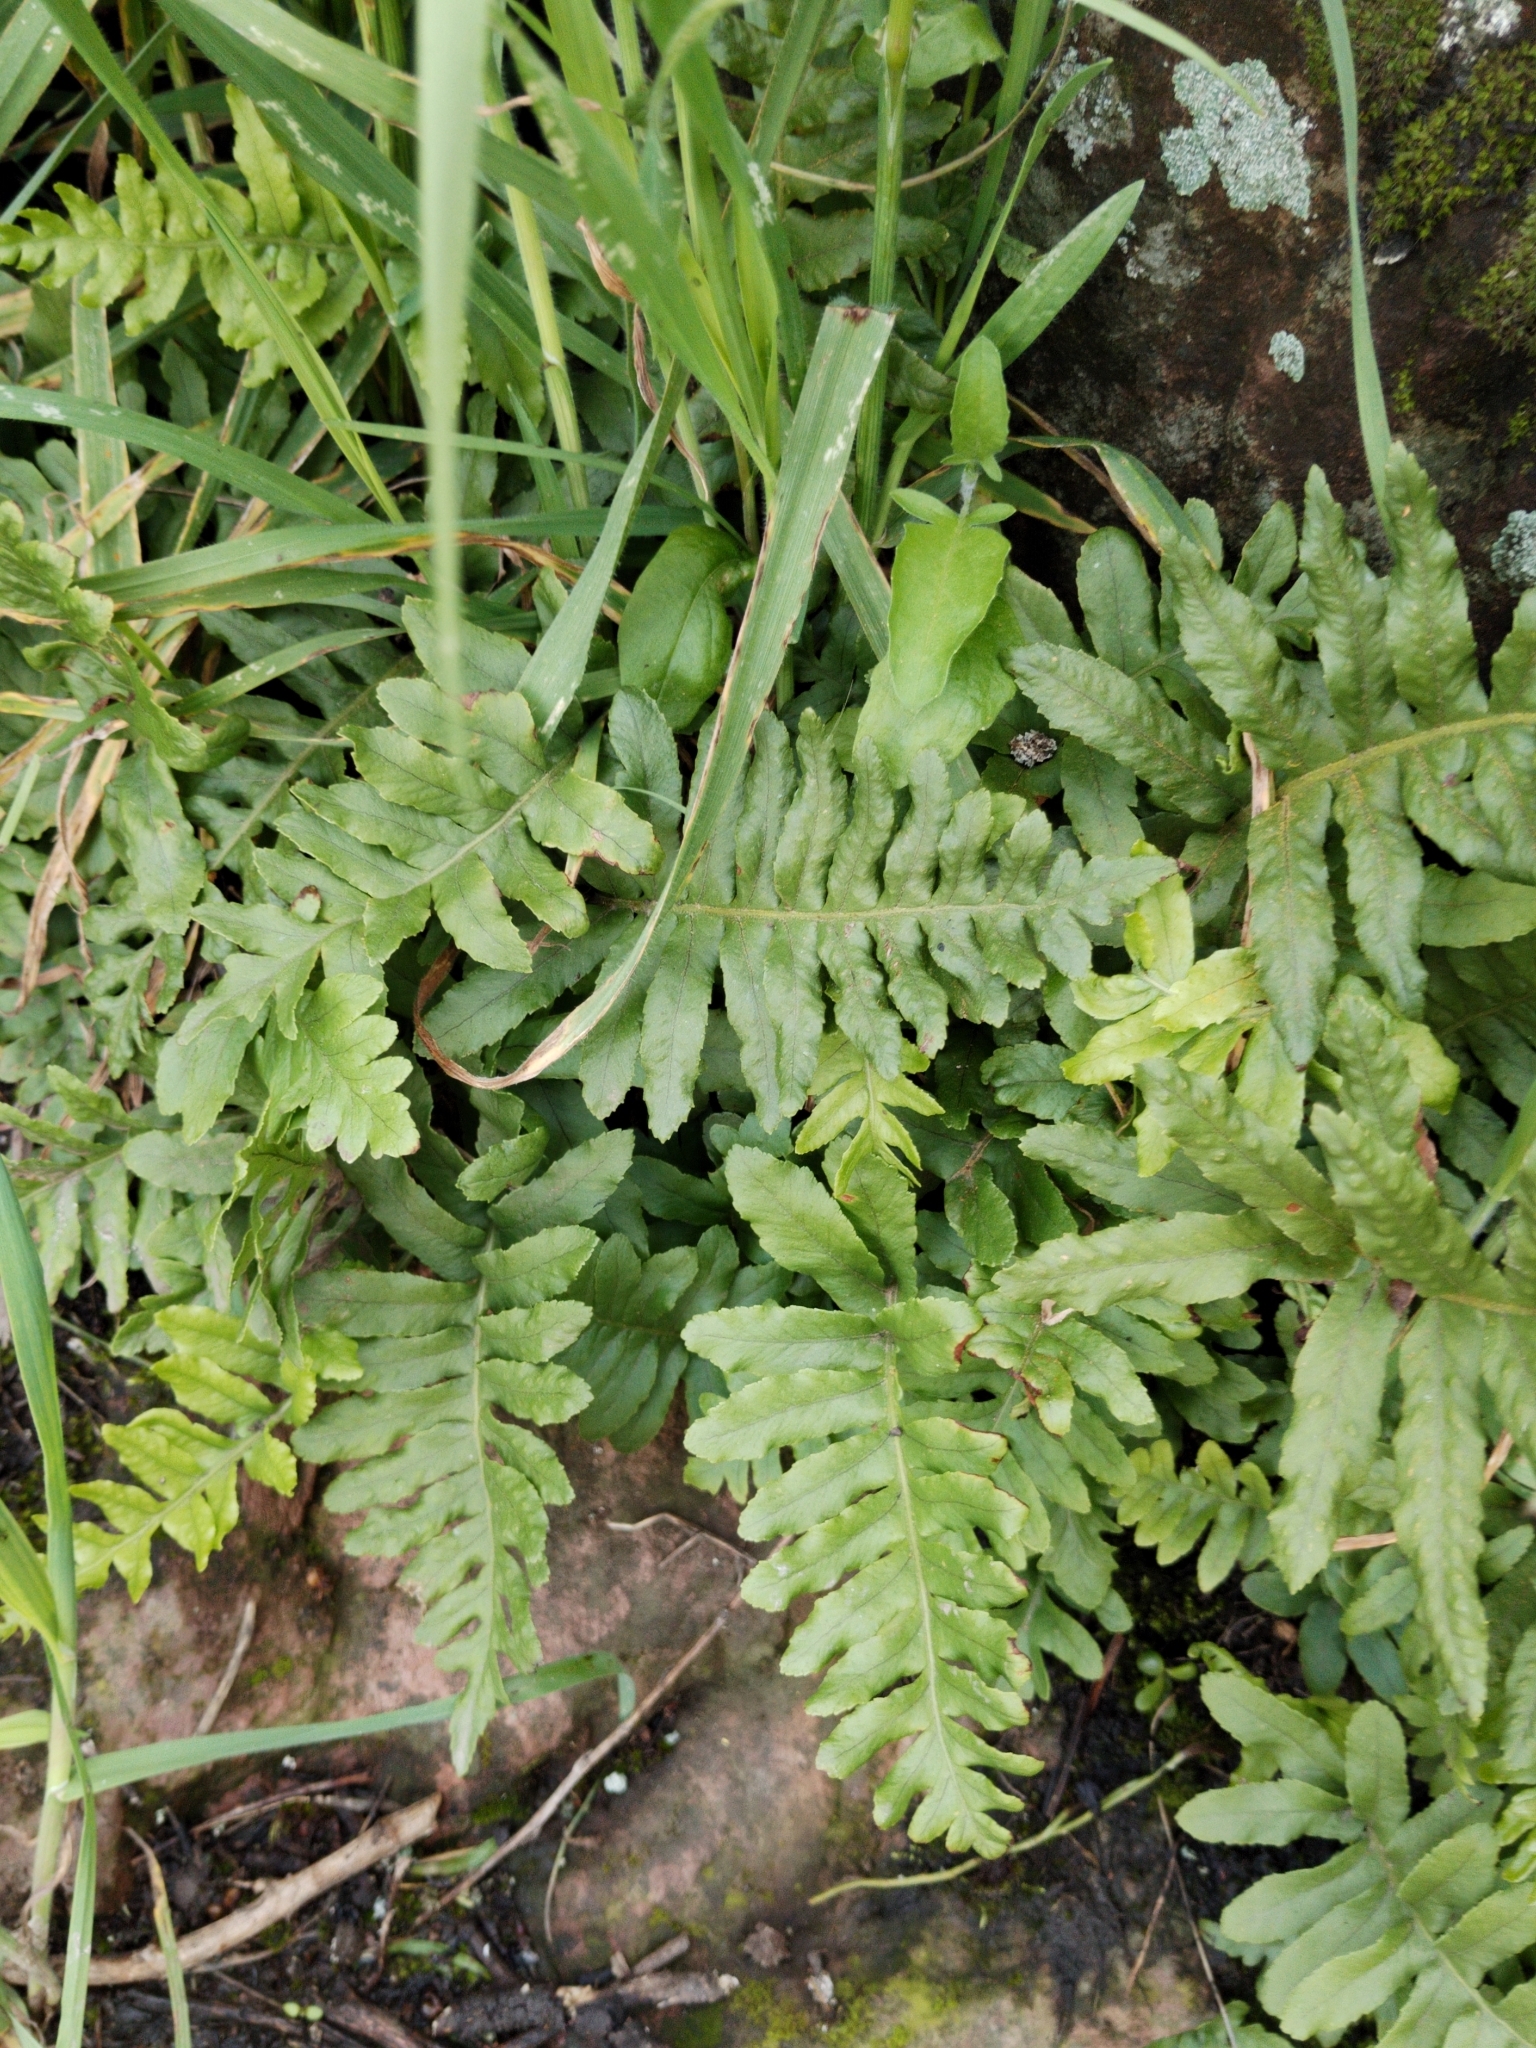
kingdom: Plantae
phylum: Tracheophyta
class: Polypodiopsida
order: Polypodiales
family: Polypodiaceae
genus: Polypodium
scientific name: Polypodium californicum
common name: California polypody
